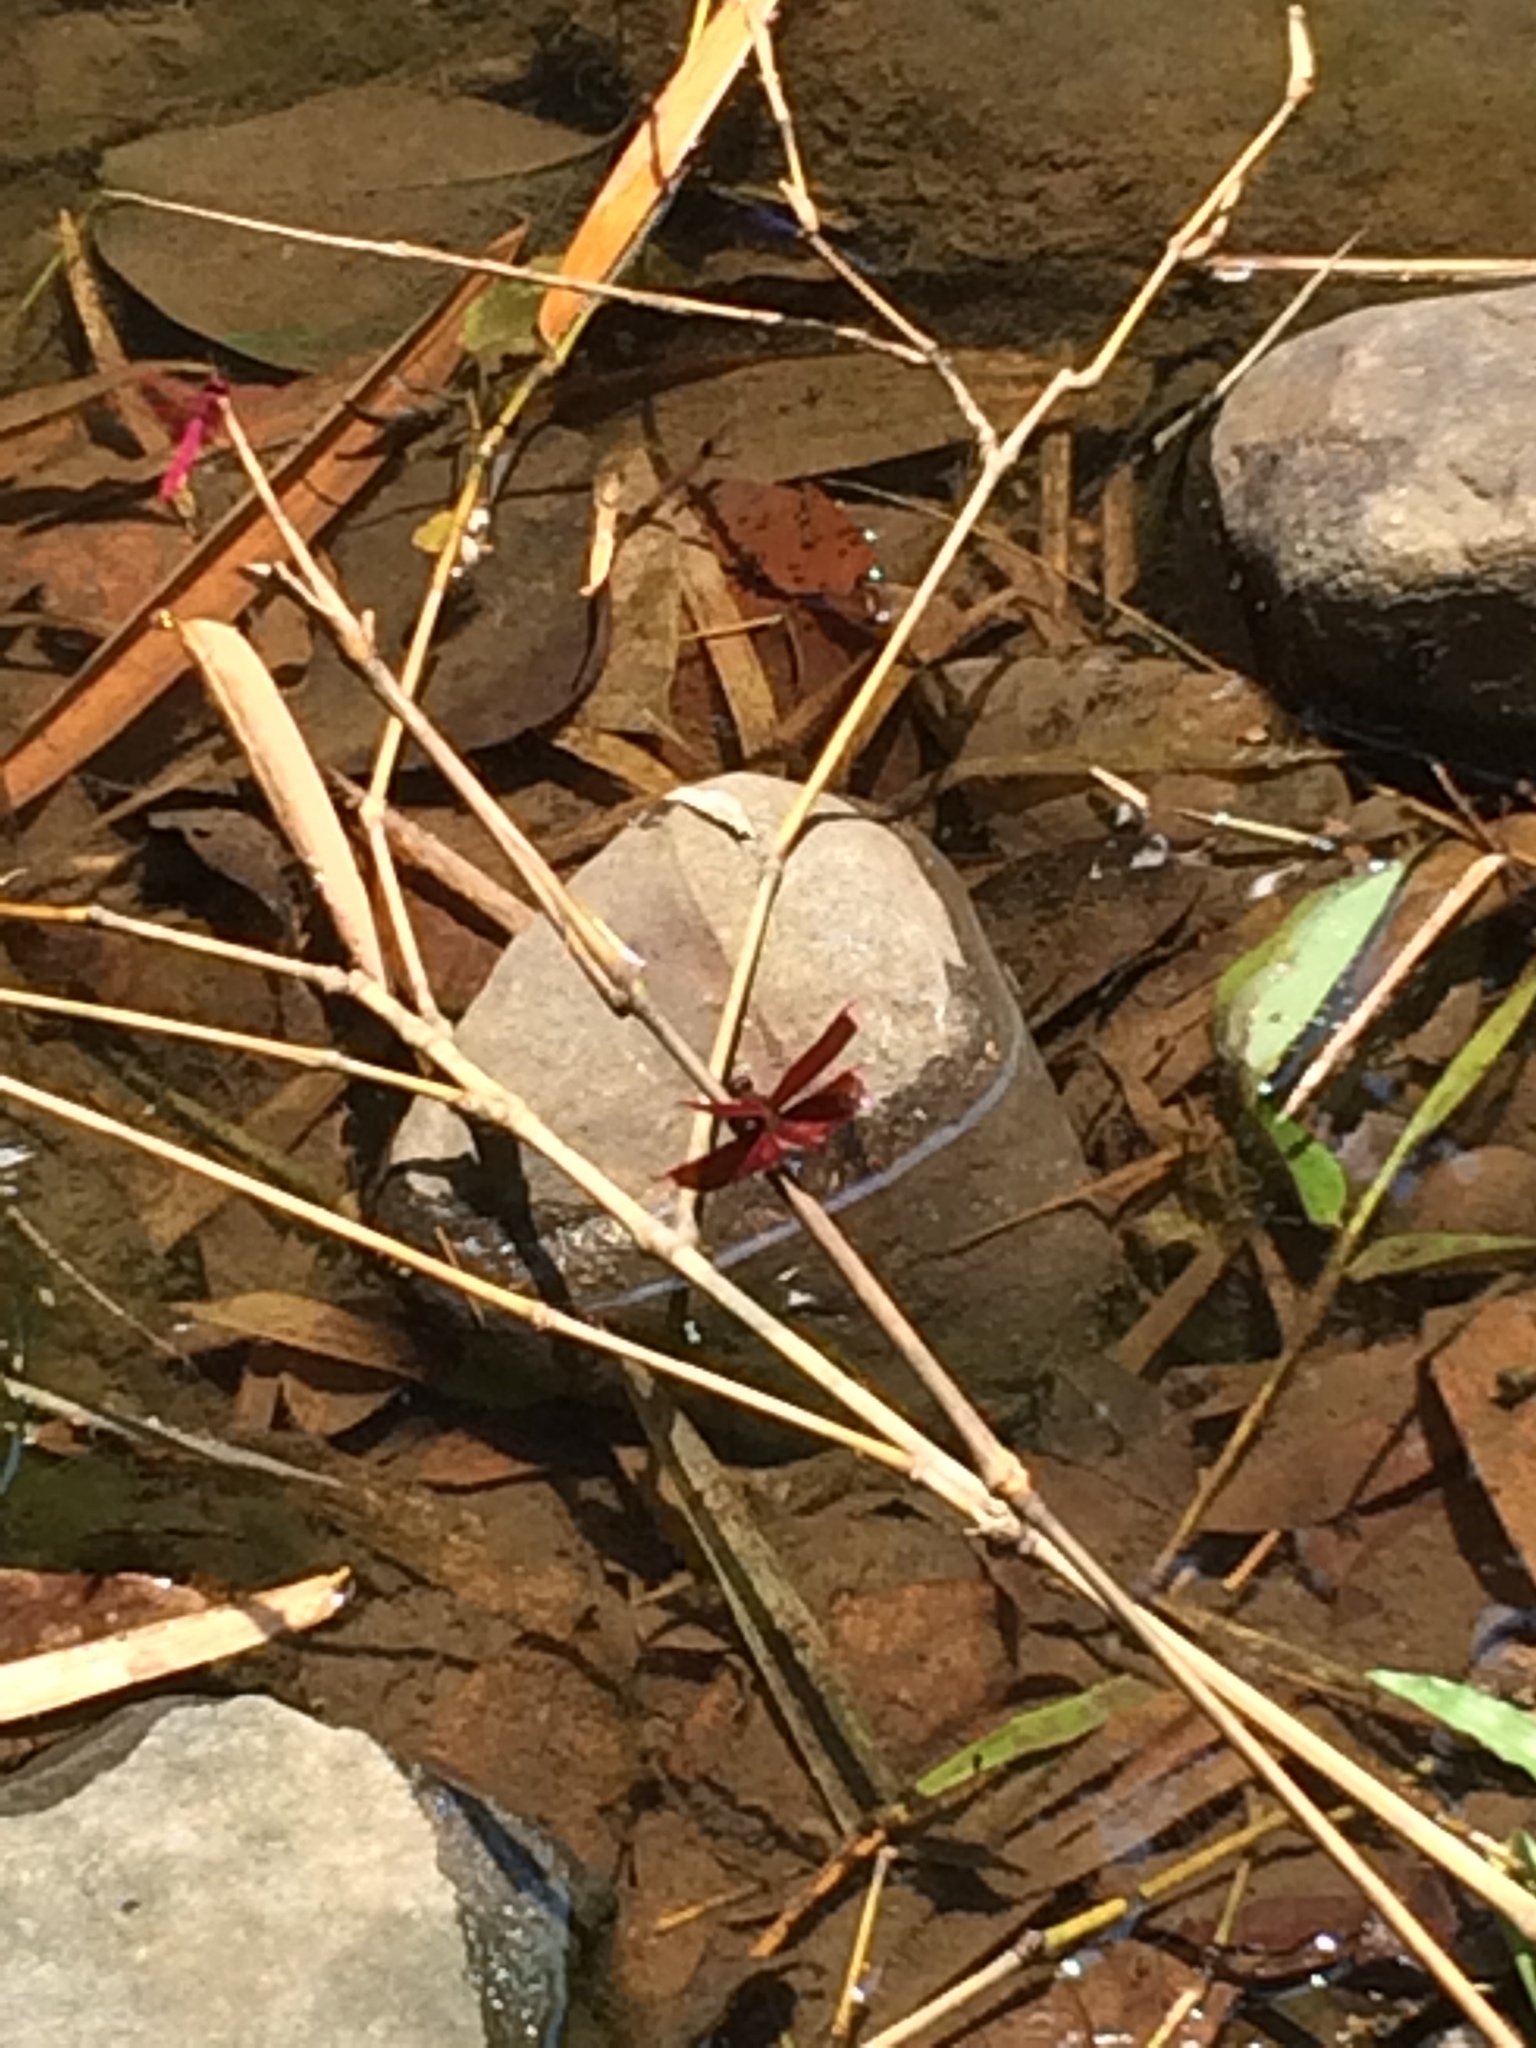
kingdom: Animalia
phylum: Arthropoda
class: Insecta
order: Odonata
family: Libellulidae
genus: Neurothemis
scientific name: Neurothemis ramburii
